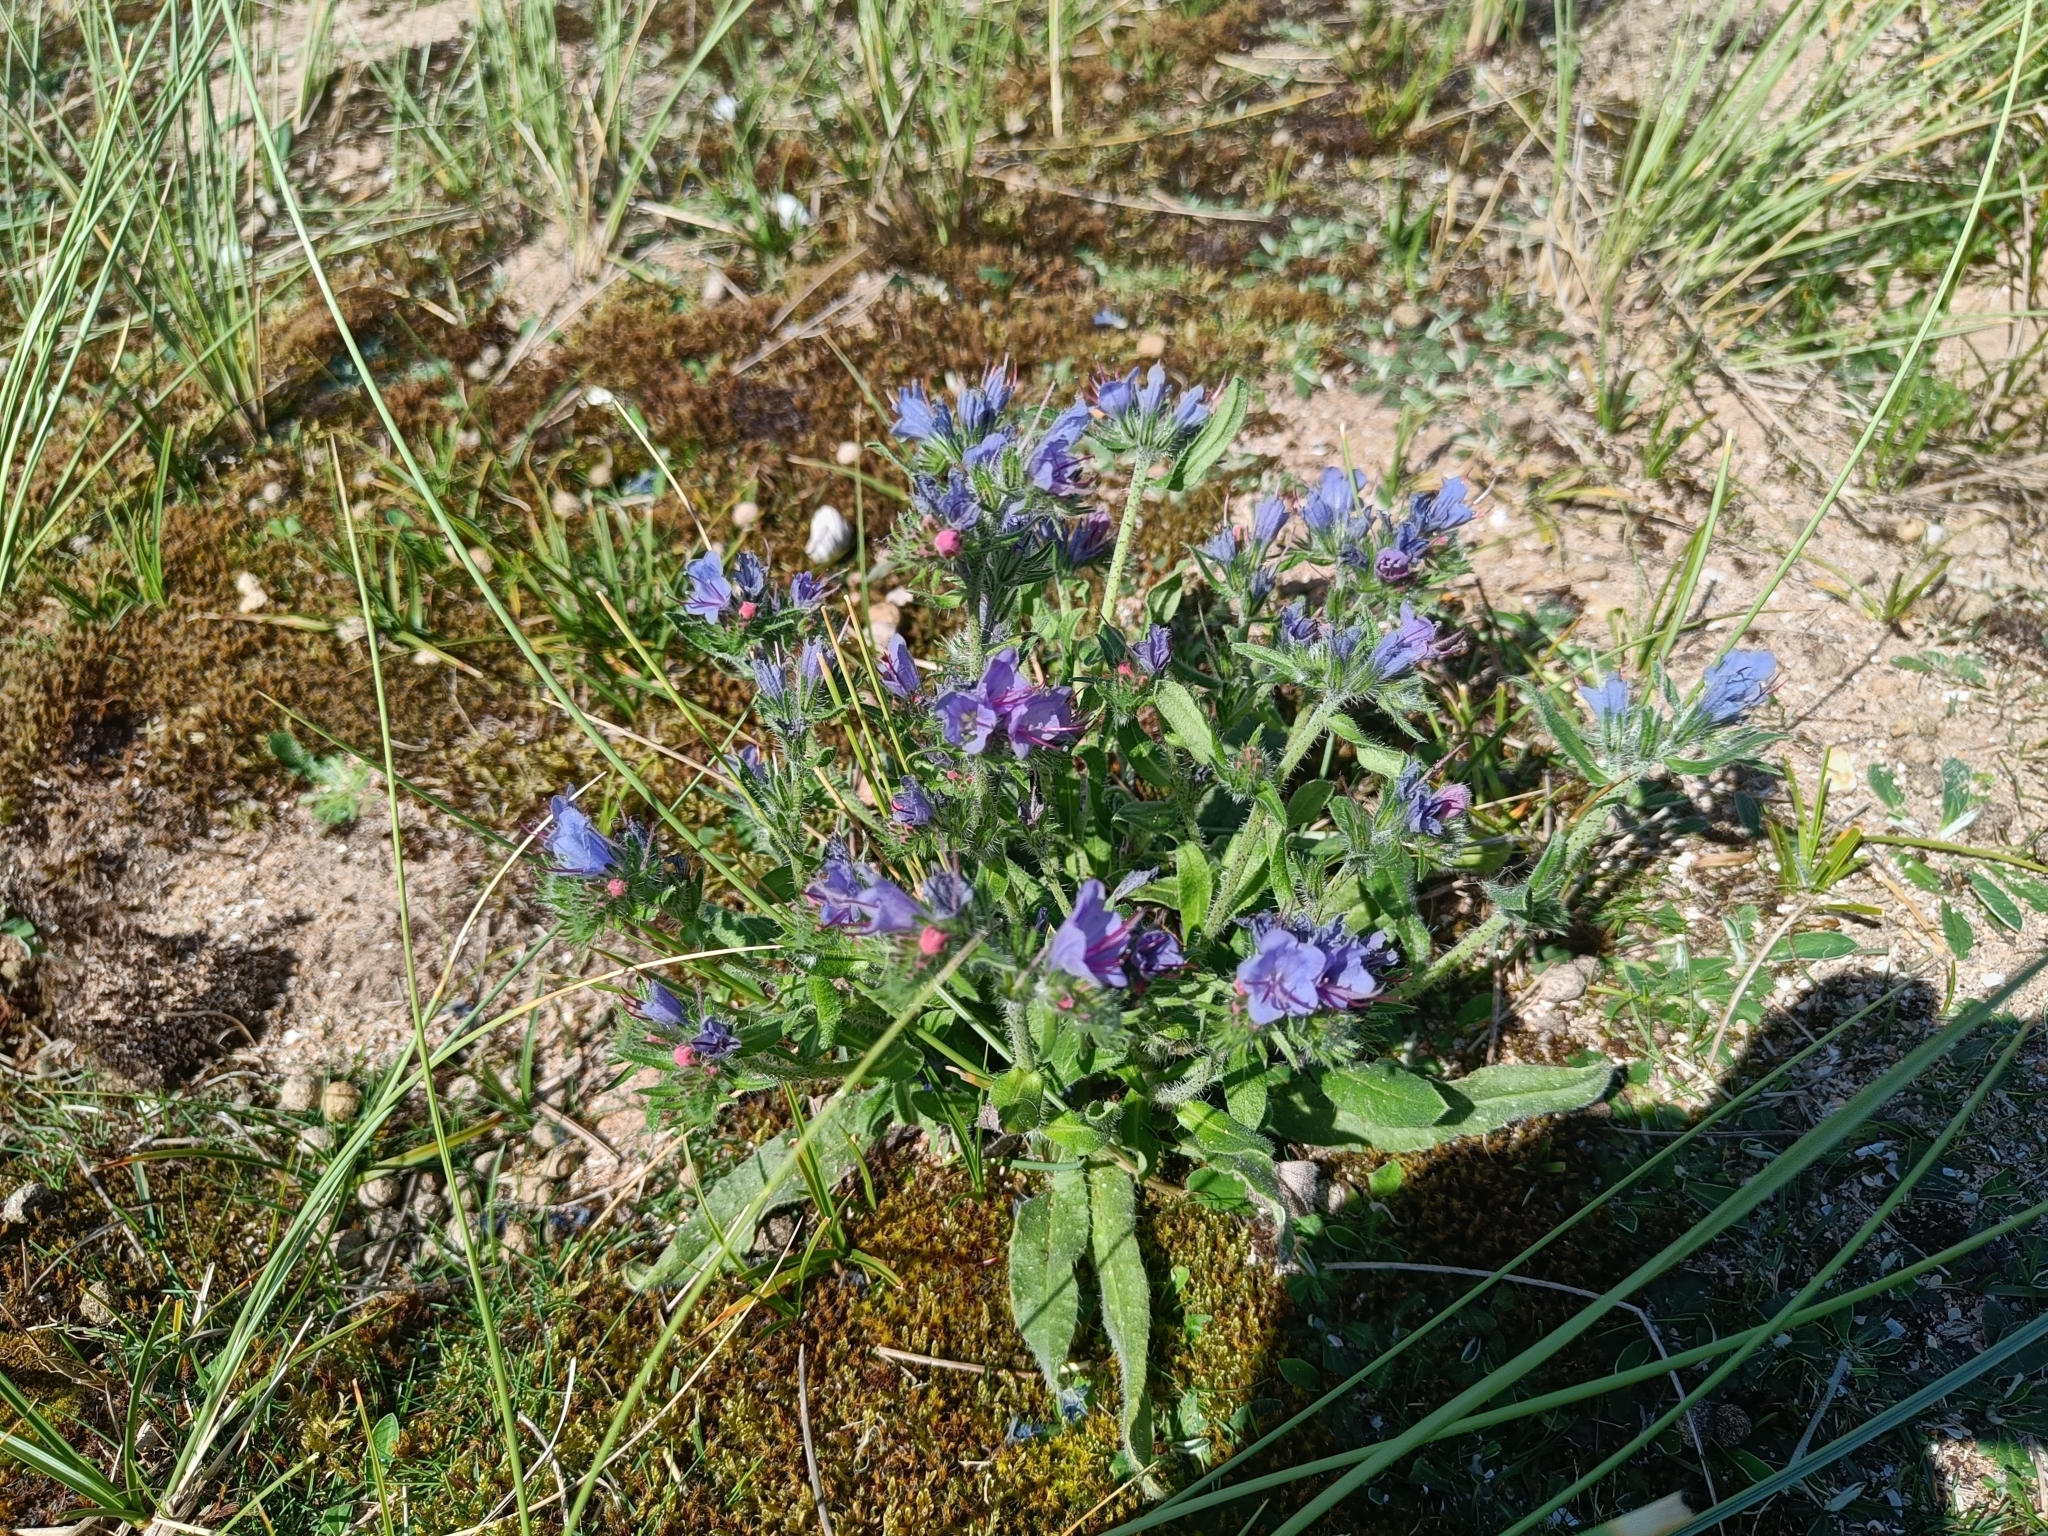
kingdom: Plantae
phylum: Tracheophyta
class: Magnoliopsida
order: Boraginales
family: Boraginaceae
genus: Echium
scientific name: Echium vulgare
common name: Common viper's bugloss
